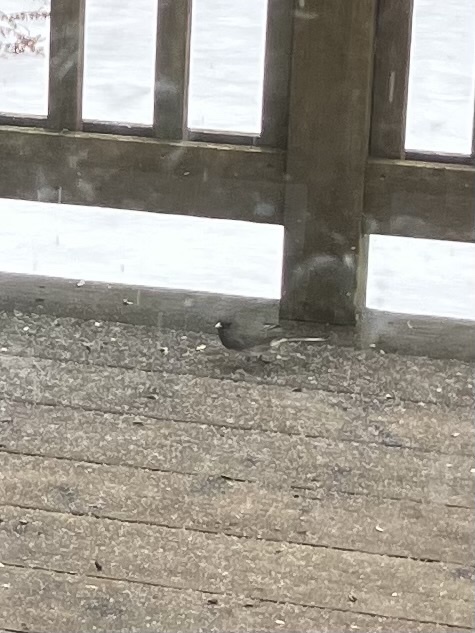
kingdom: Animalia
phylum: Chordata
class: Aves
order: Passeriformes
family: Passerellidae
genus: Junco
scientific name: Junco hyemalis
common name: Dark-eyed junco
